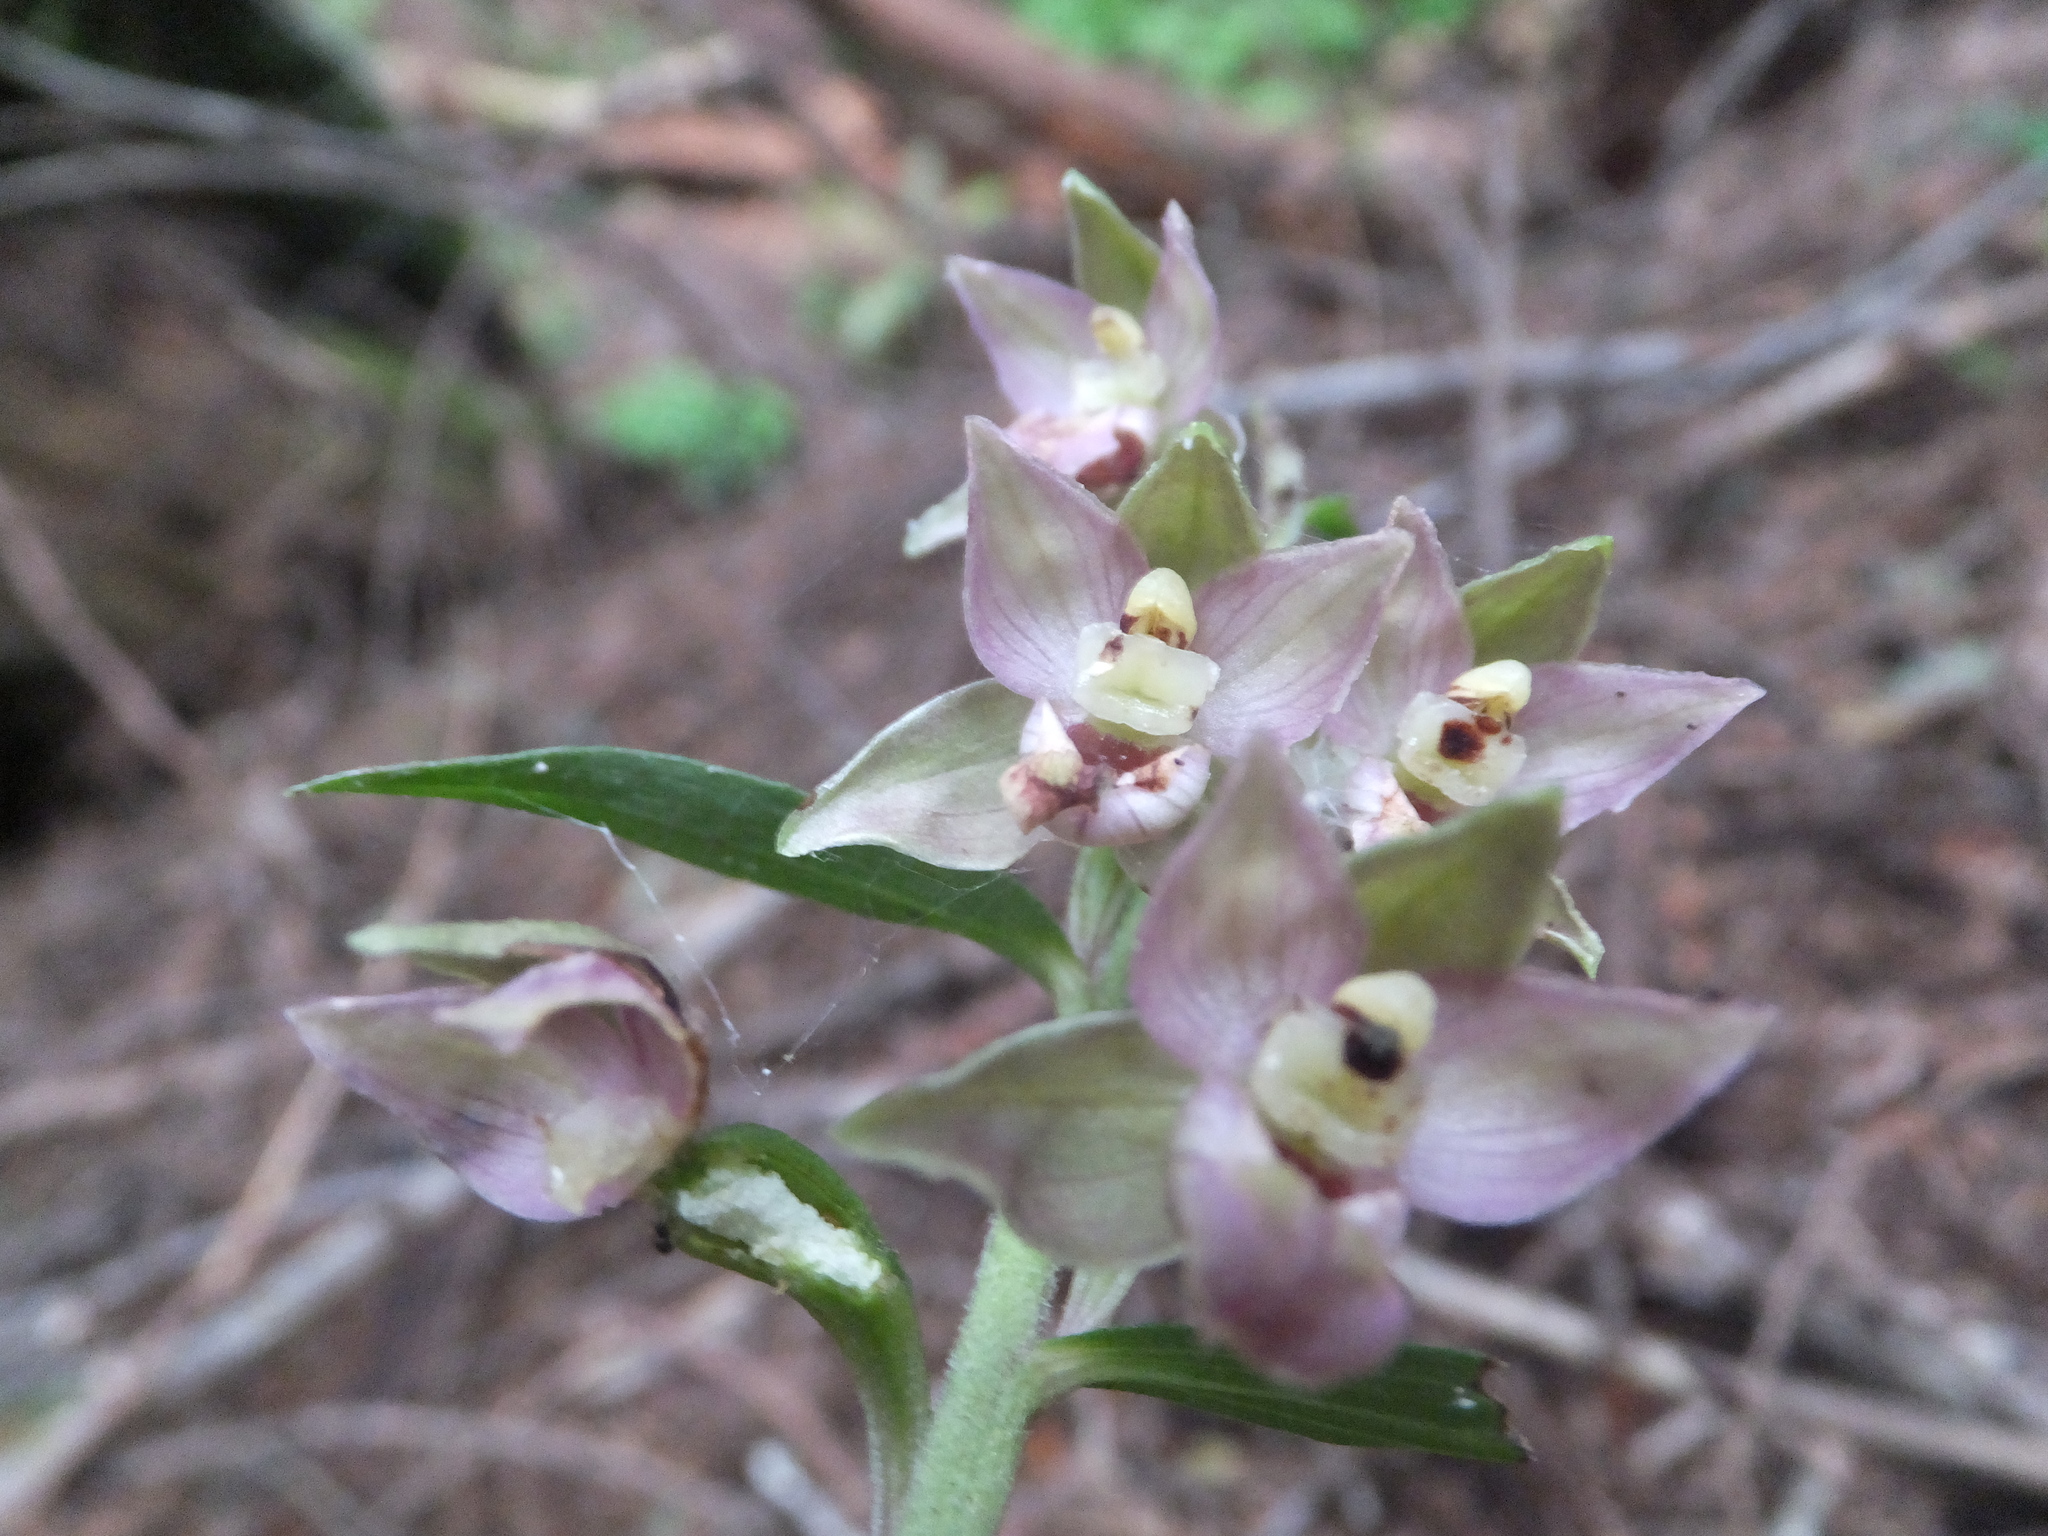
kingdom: Plantae
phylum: Tracheophyta
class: Liliopsida
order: Asparagales
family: Orchidaceae
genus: Epipactis
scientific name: Epipactis helleborine
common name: Broad-leaved helleborine
